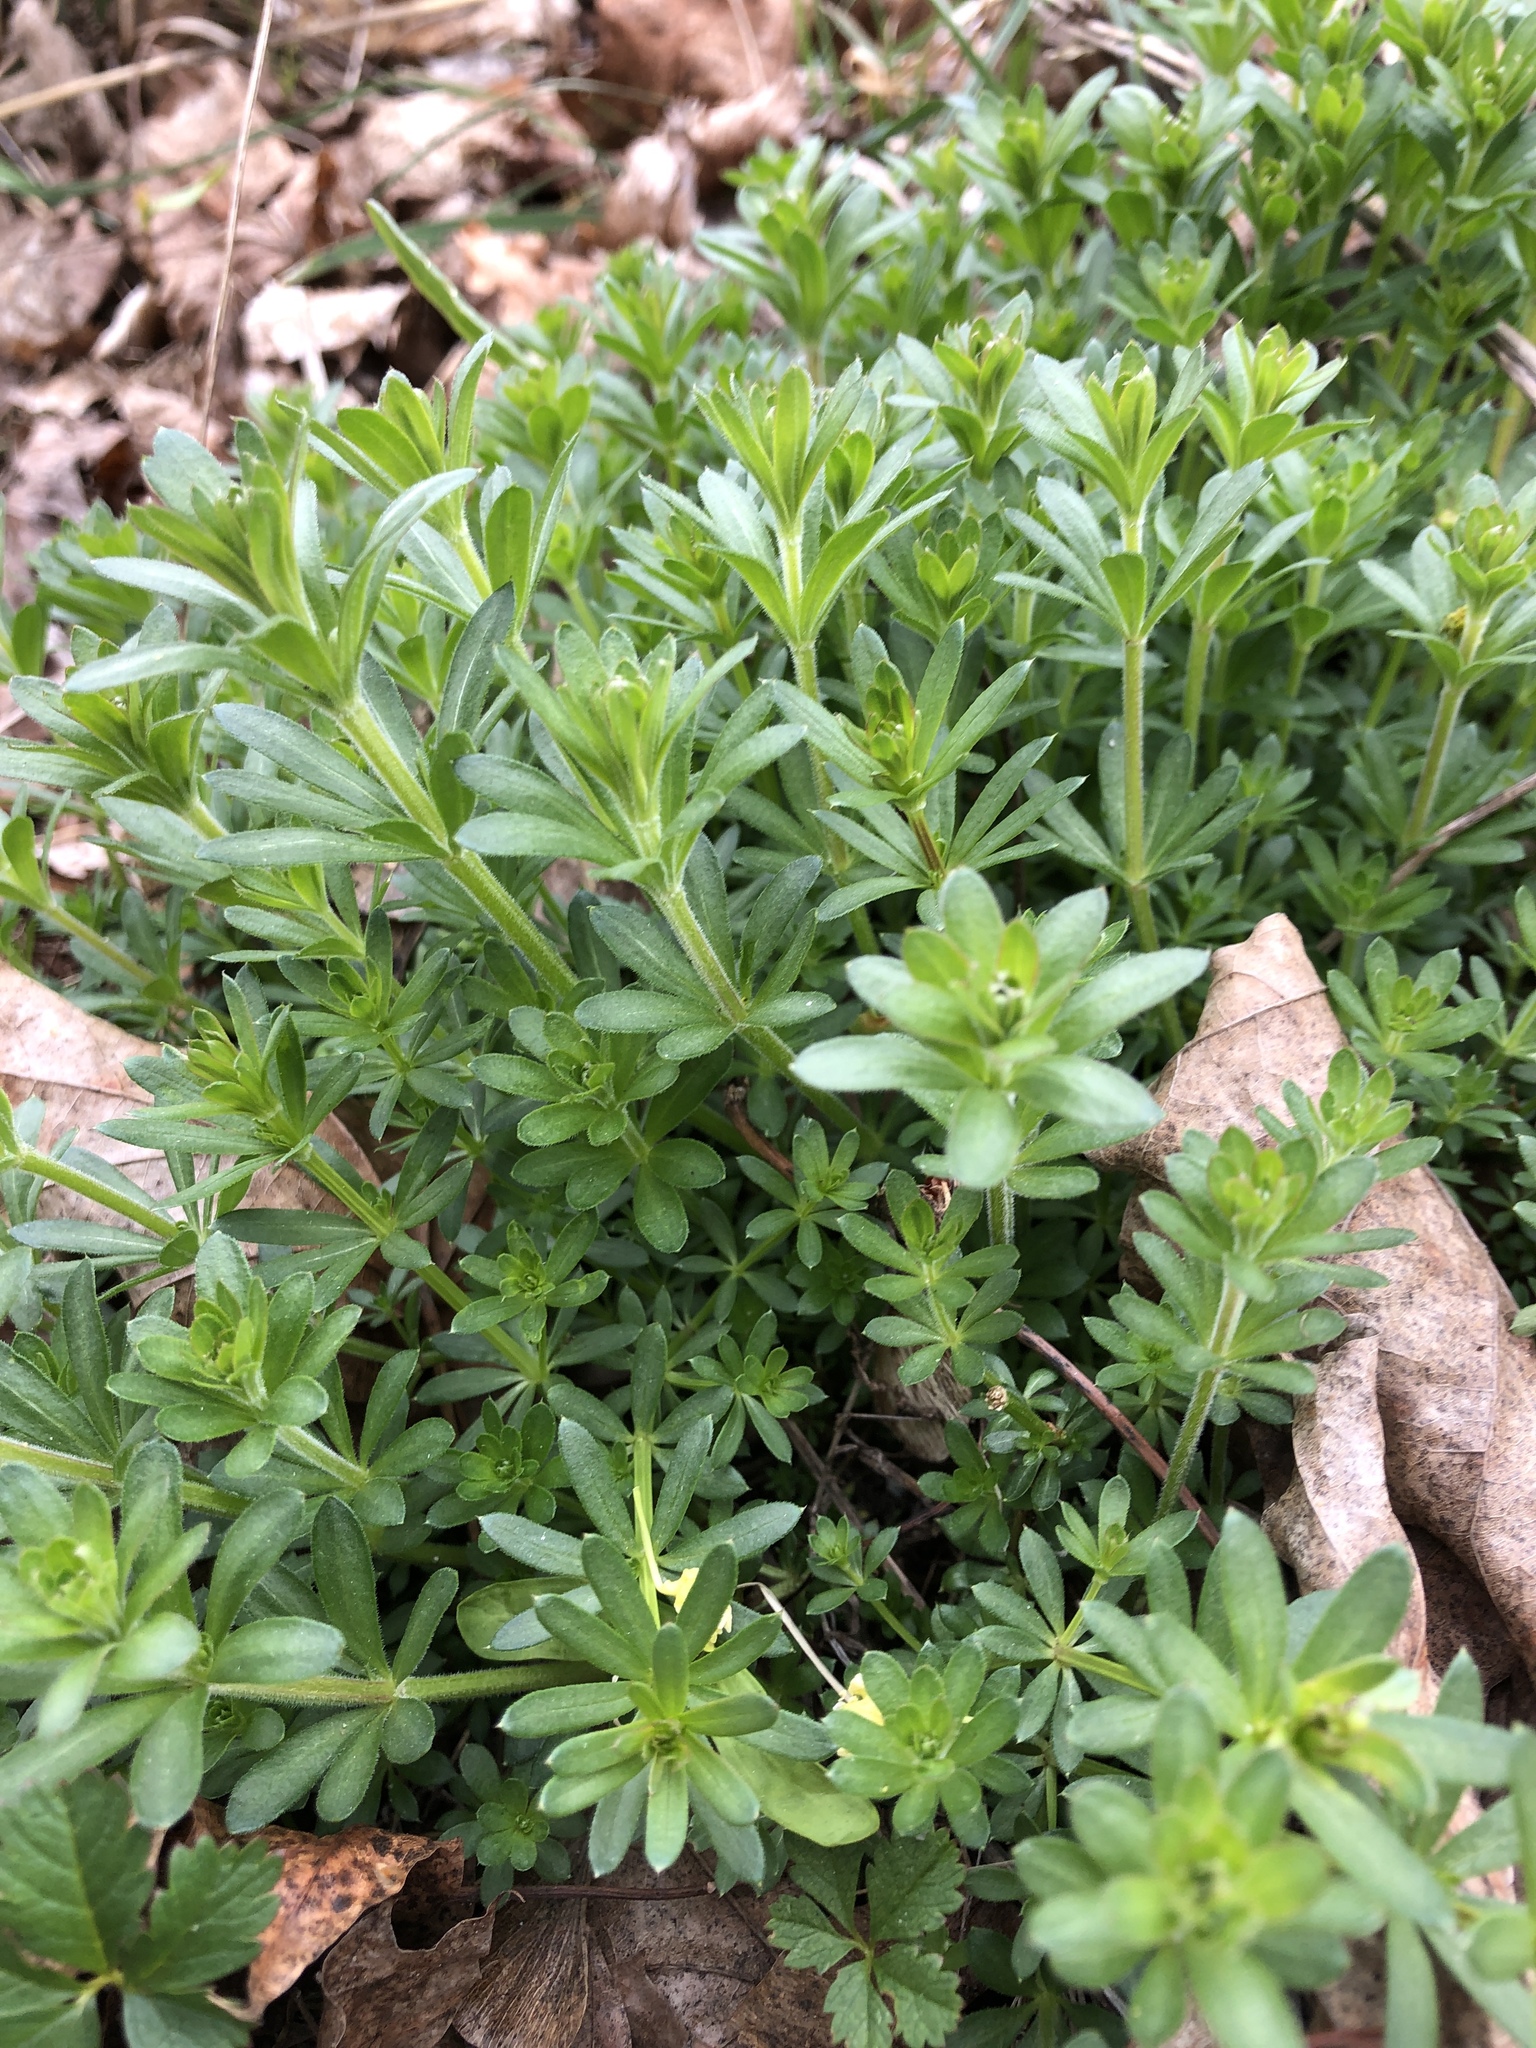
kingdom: Plantae
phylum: Tracheophyta
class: Magnoliopsida
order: Gentianales
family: Rubiaceae
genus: Galium
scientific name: Galium album
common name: White bedstraw
